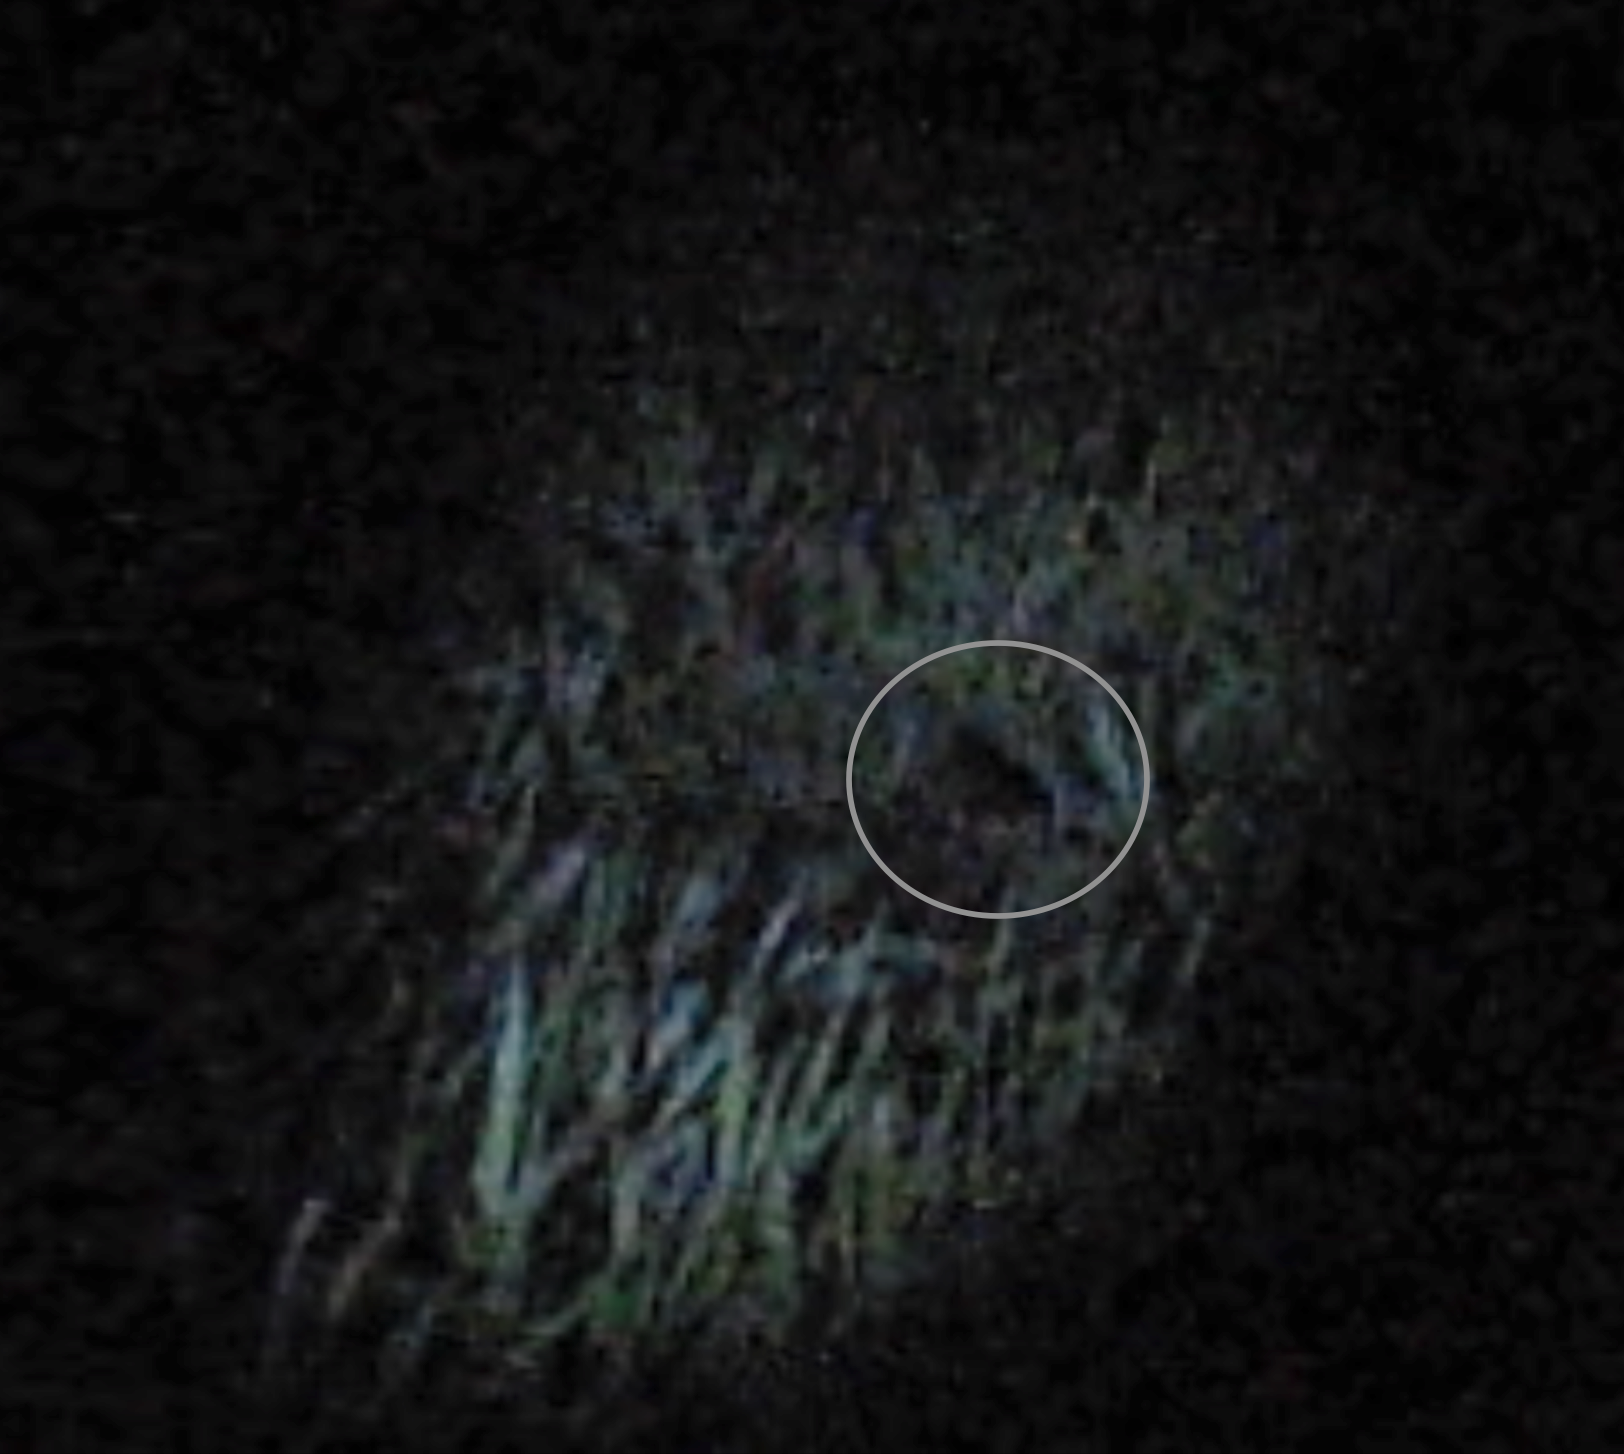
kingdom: Animalia
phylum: Chordata
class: Aves
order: Gruiformes
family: Rallidae
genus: Crex
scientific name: Crex crex
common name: Corn crake
